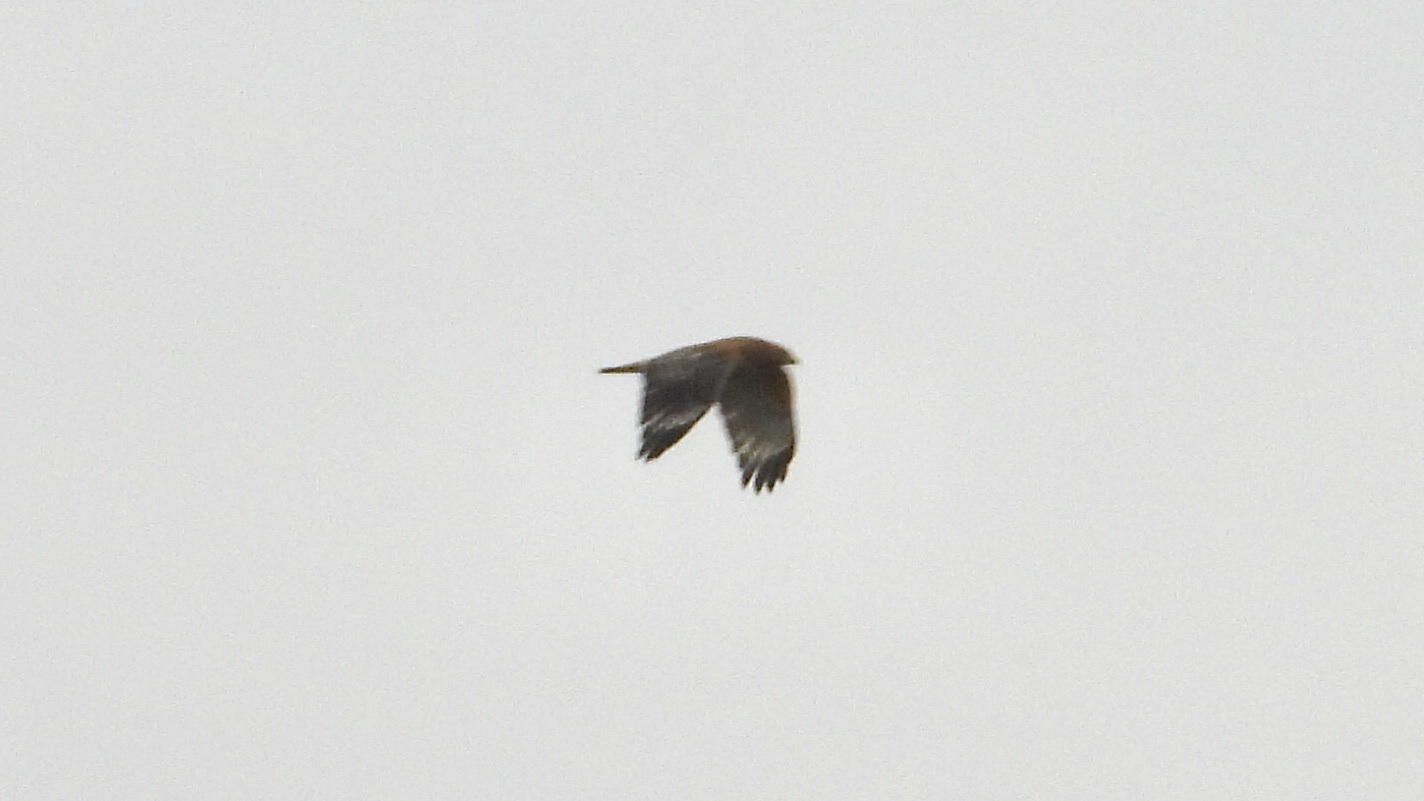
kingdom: Animalia
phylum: Chordata
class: Aves
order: Accipitriformes
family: Accipitridae
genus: Buteo
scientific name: Buteo lineatus
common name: Red-shouldered hawk
